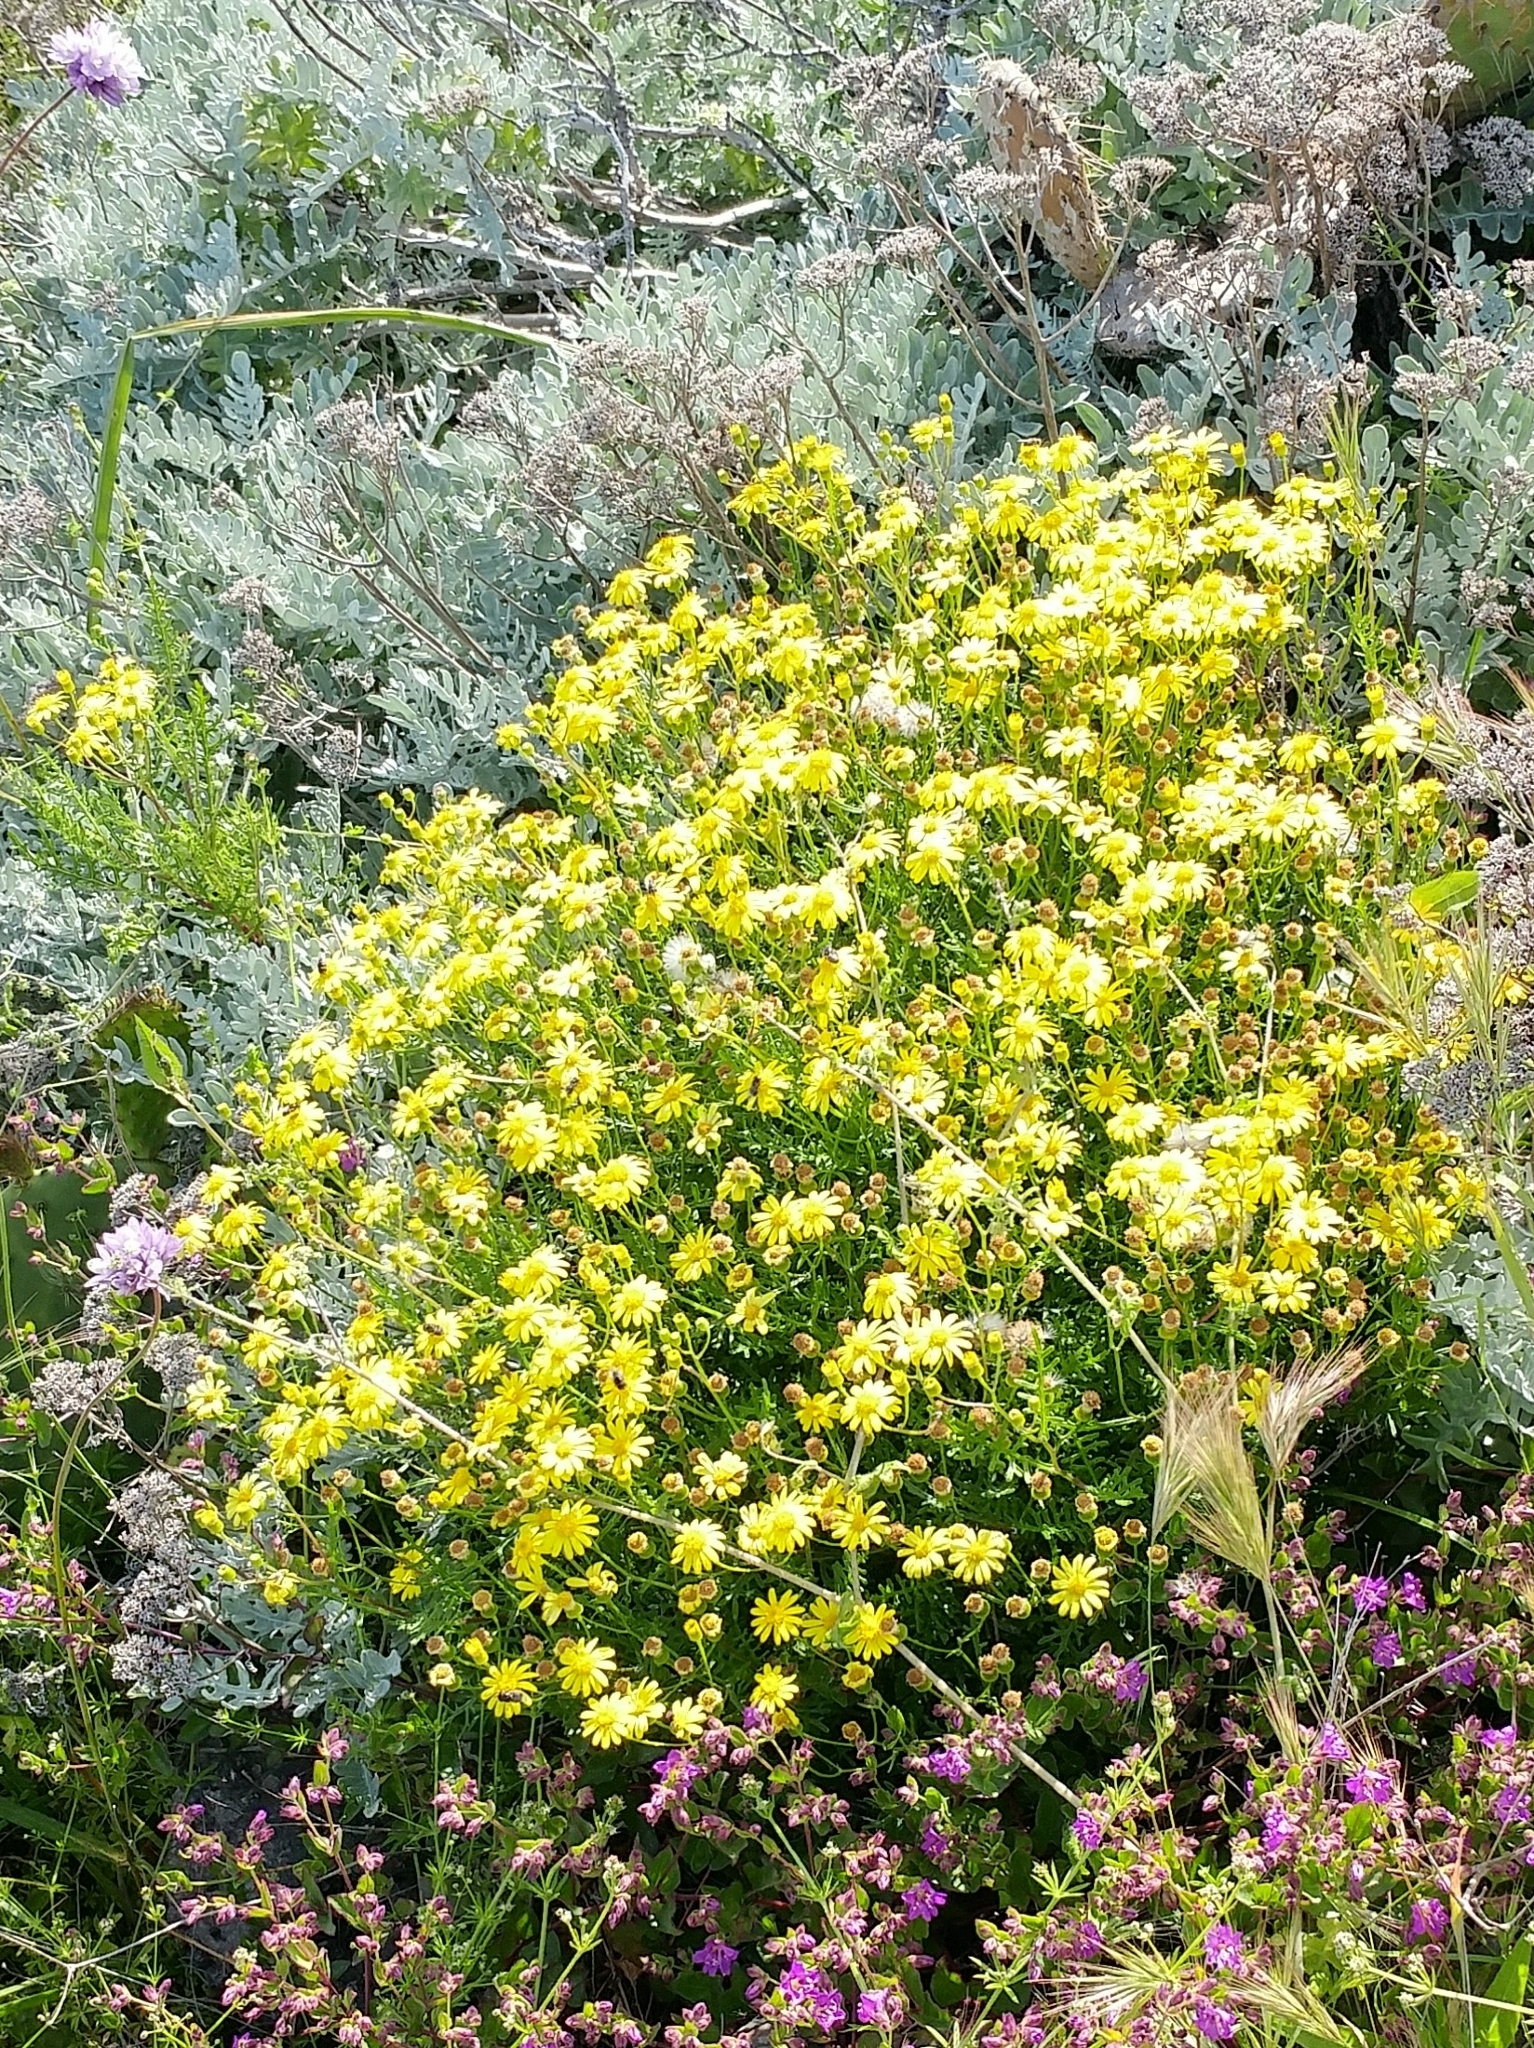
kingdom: Plantae
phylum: Tracheophyta
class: Magnoliopsida
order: Asterales
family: Asteraceae
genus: Senecio
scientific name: Senecio lyonii
